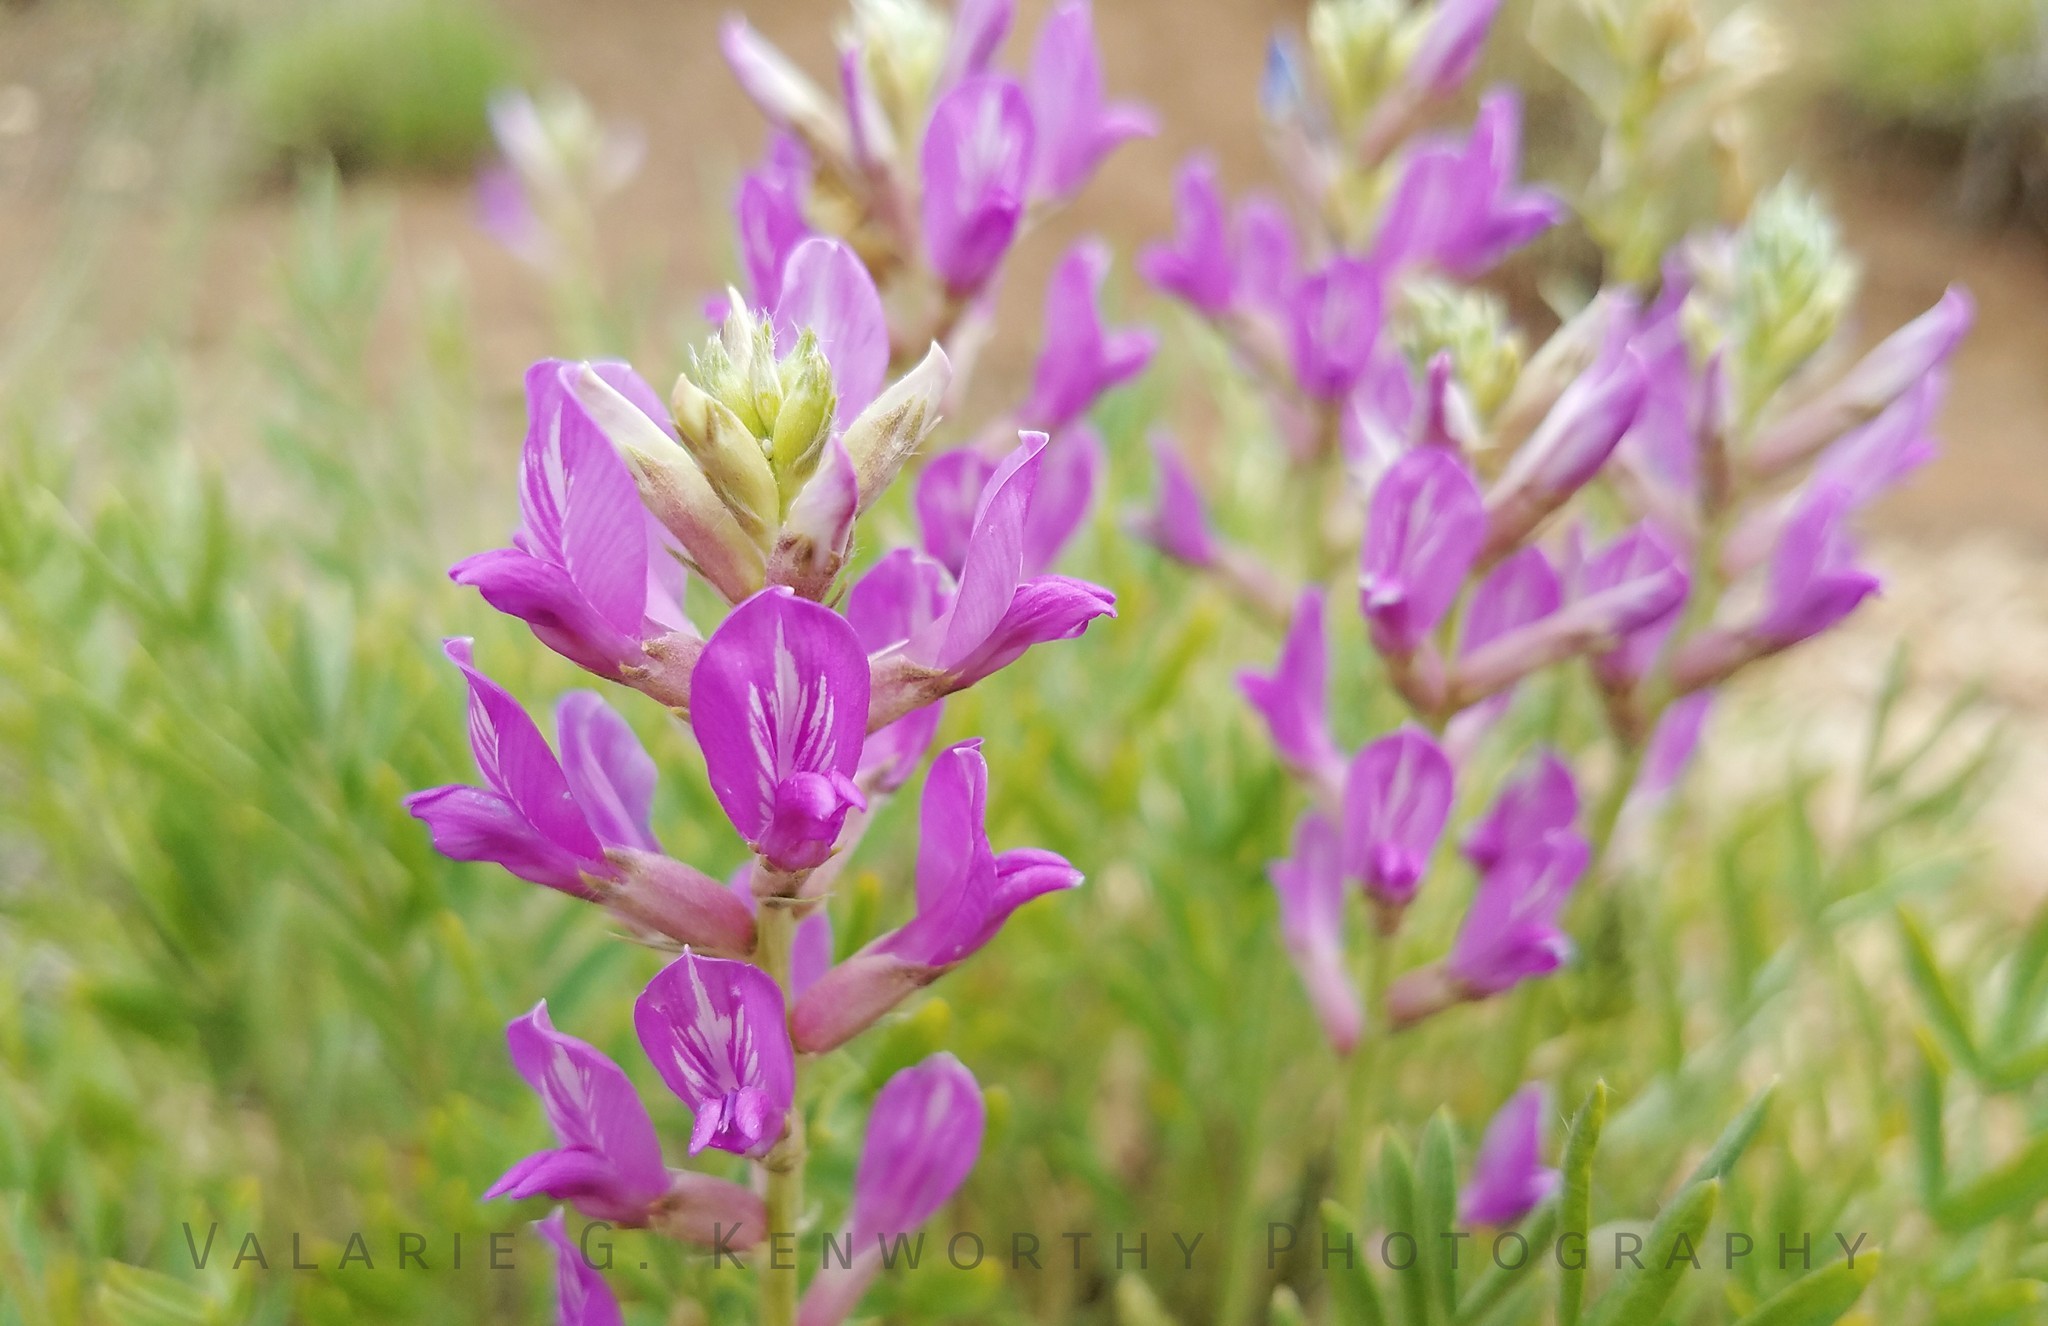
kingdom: Plantae
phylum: Tracheophyta
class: Magnoliopsida
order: Fabales
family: Fabaceae
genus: Oxytropis
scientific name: Oxytropis lambertii
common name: Purple locoweed
